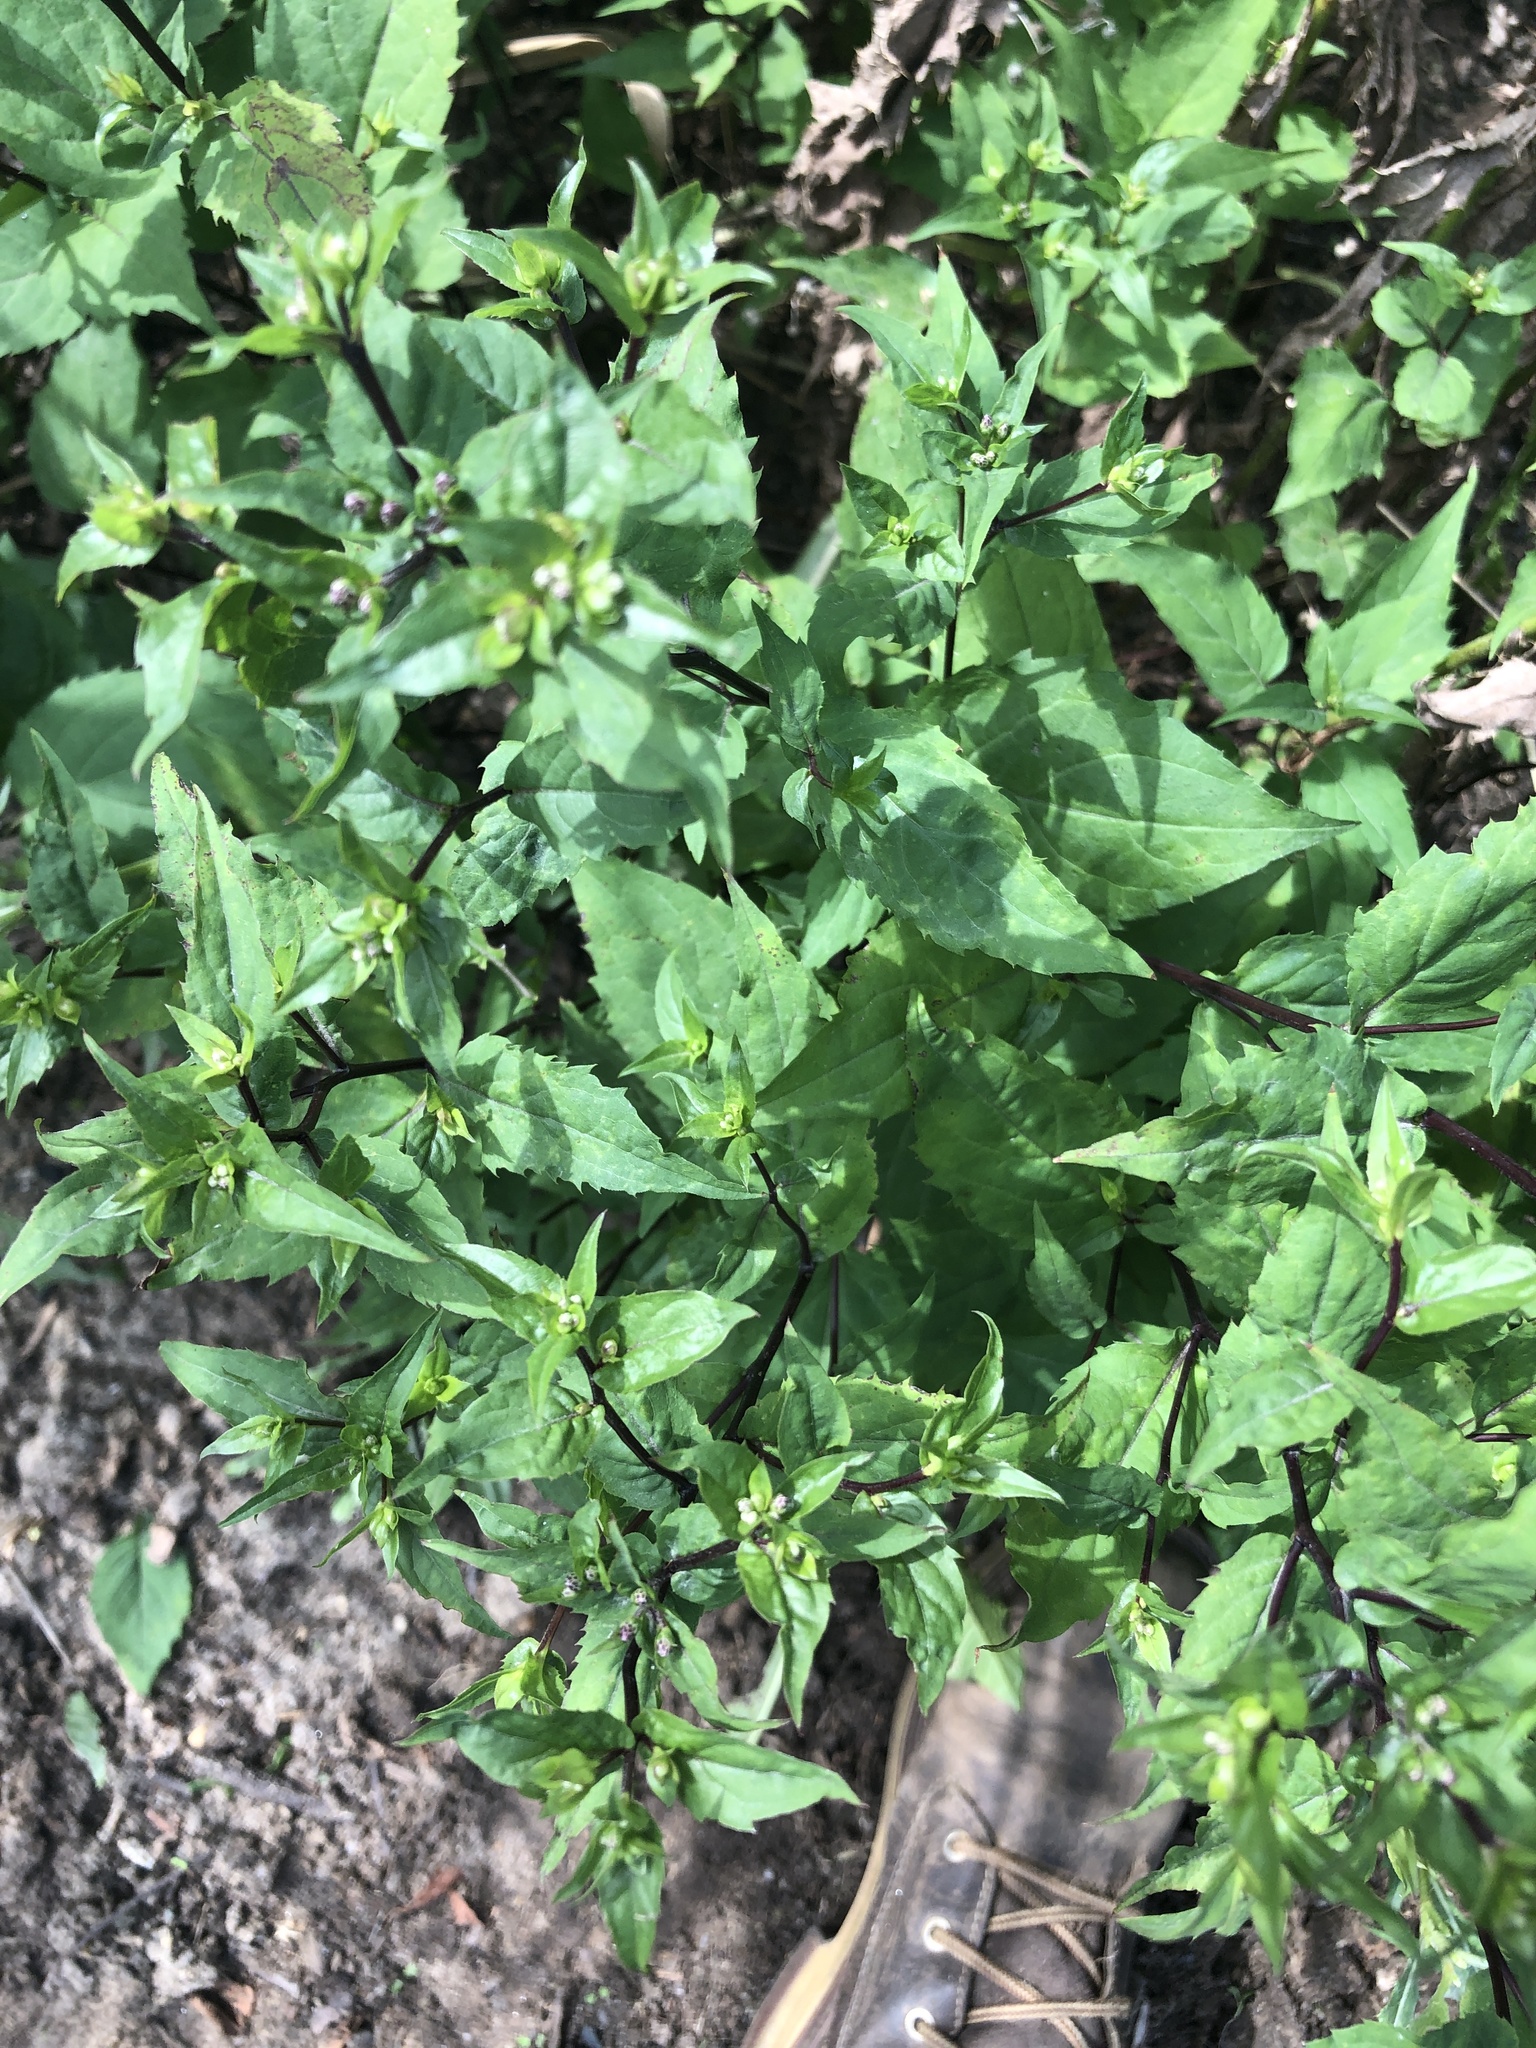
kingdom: Plantae
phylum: Tracheophyta
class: Magnoliopsida
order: Asterales
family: Asteraceae
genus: Eurybia
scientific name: Eurybia divaricata
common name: White wood aster
